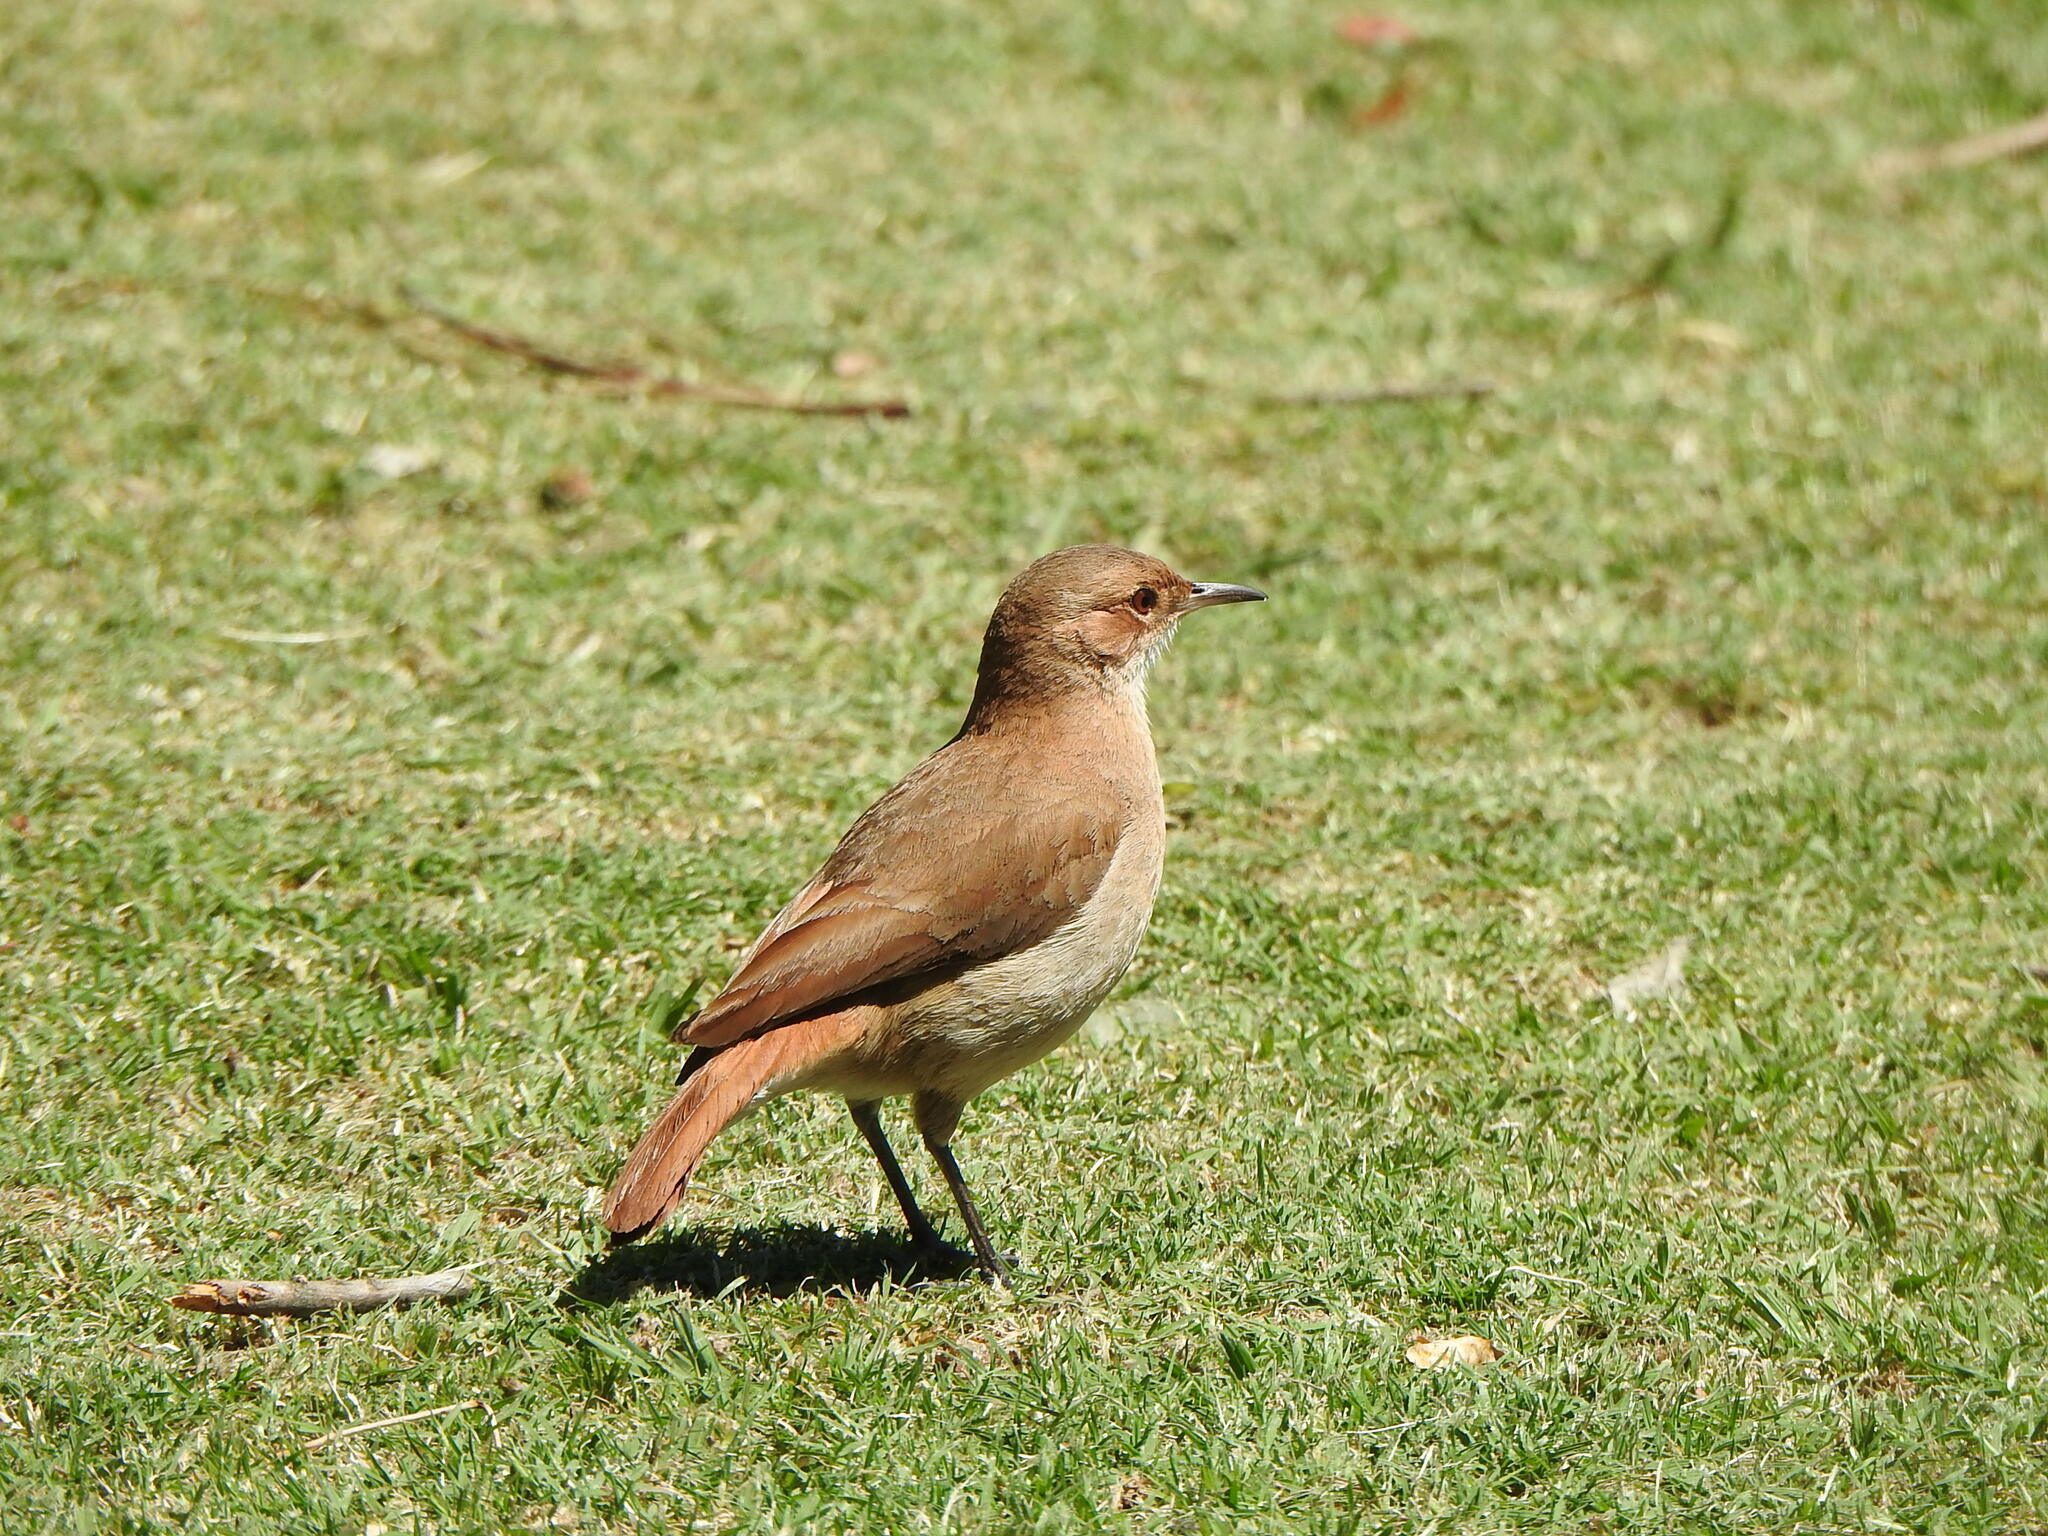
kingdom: Animalia
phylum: Chordata
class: Aves
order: Passeriformes
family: Furnariidae
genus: Furnarius
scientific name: Furnarius rufus
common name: Rufous hornero
